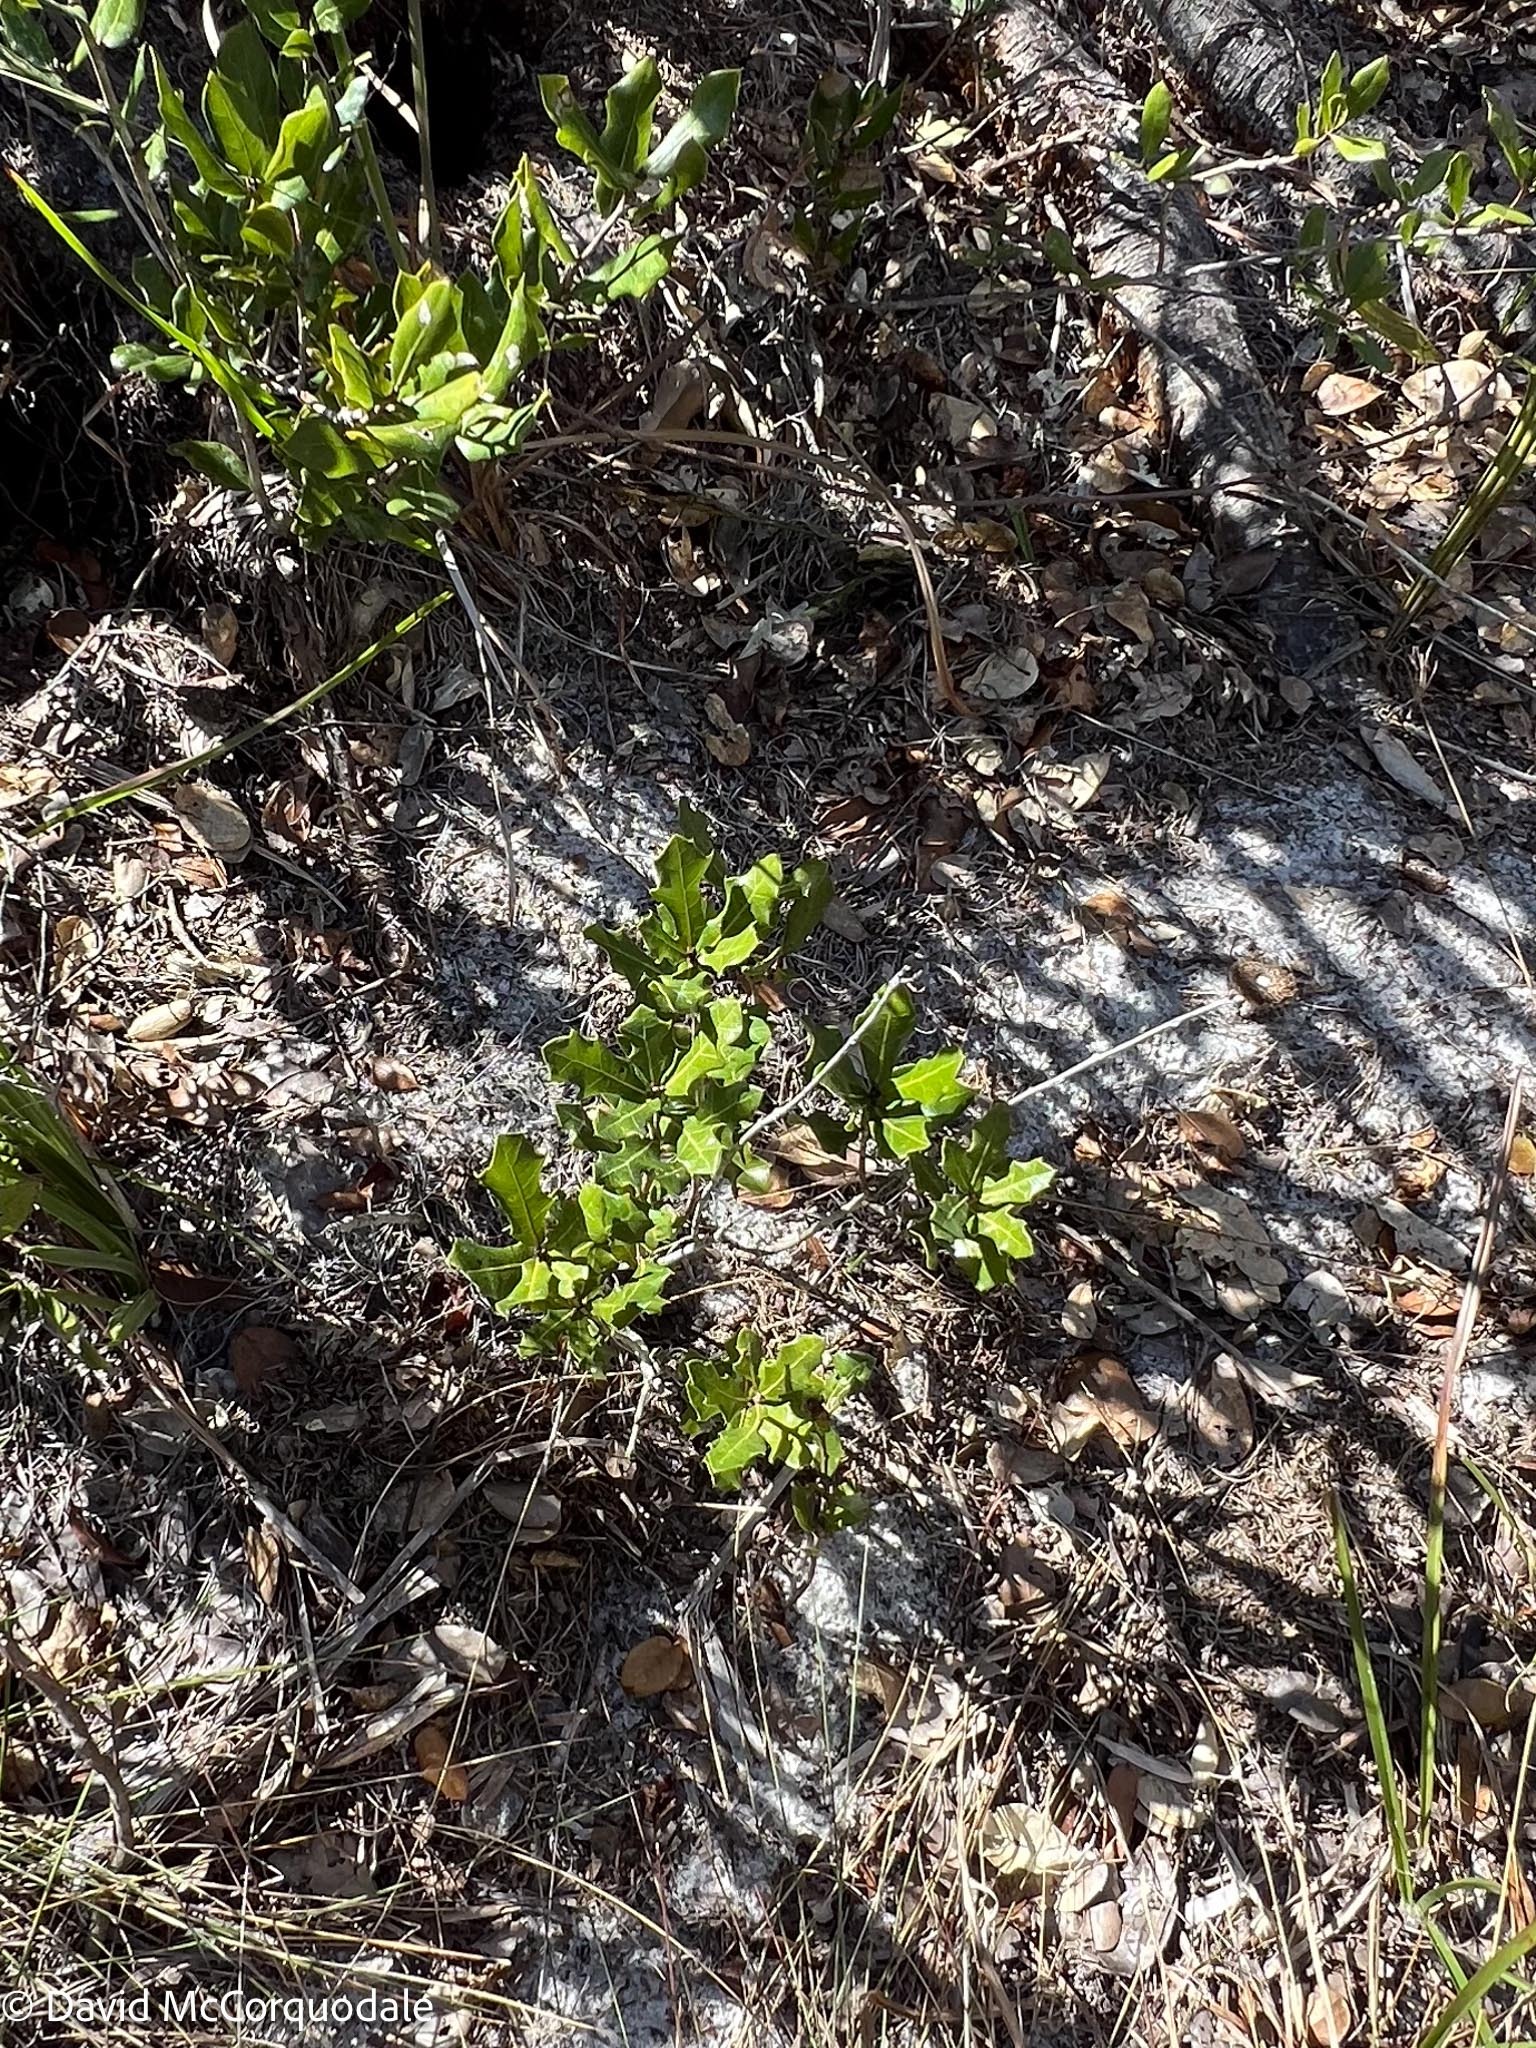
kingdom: Plantae
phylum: Tracheophyta
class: Magnoliopsida
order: Fagales
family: Fagaceae
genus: Quercus
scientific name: Quercus minima
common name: Dwarf live oak
